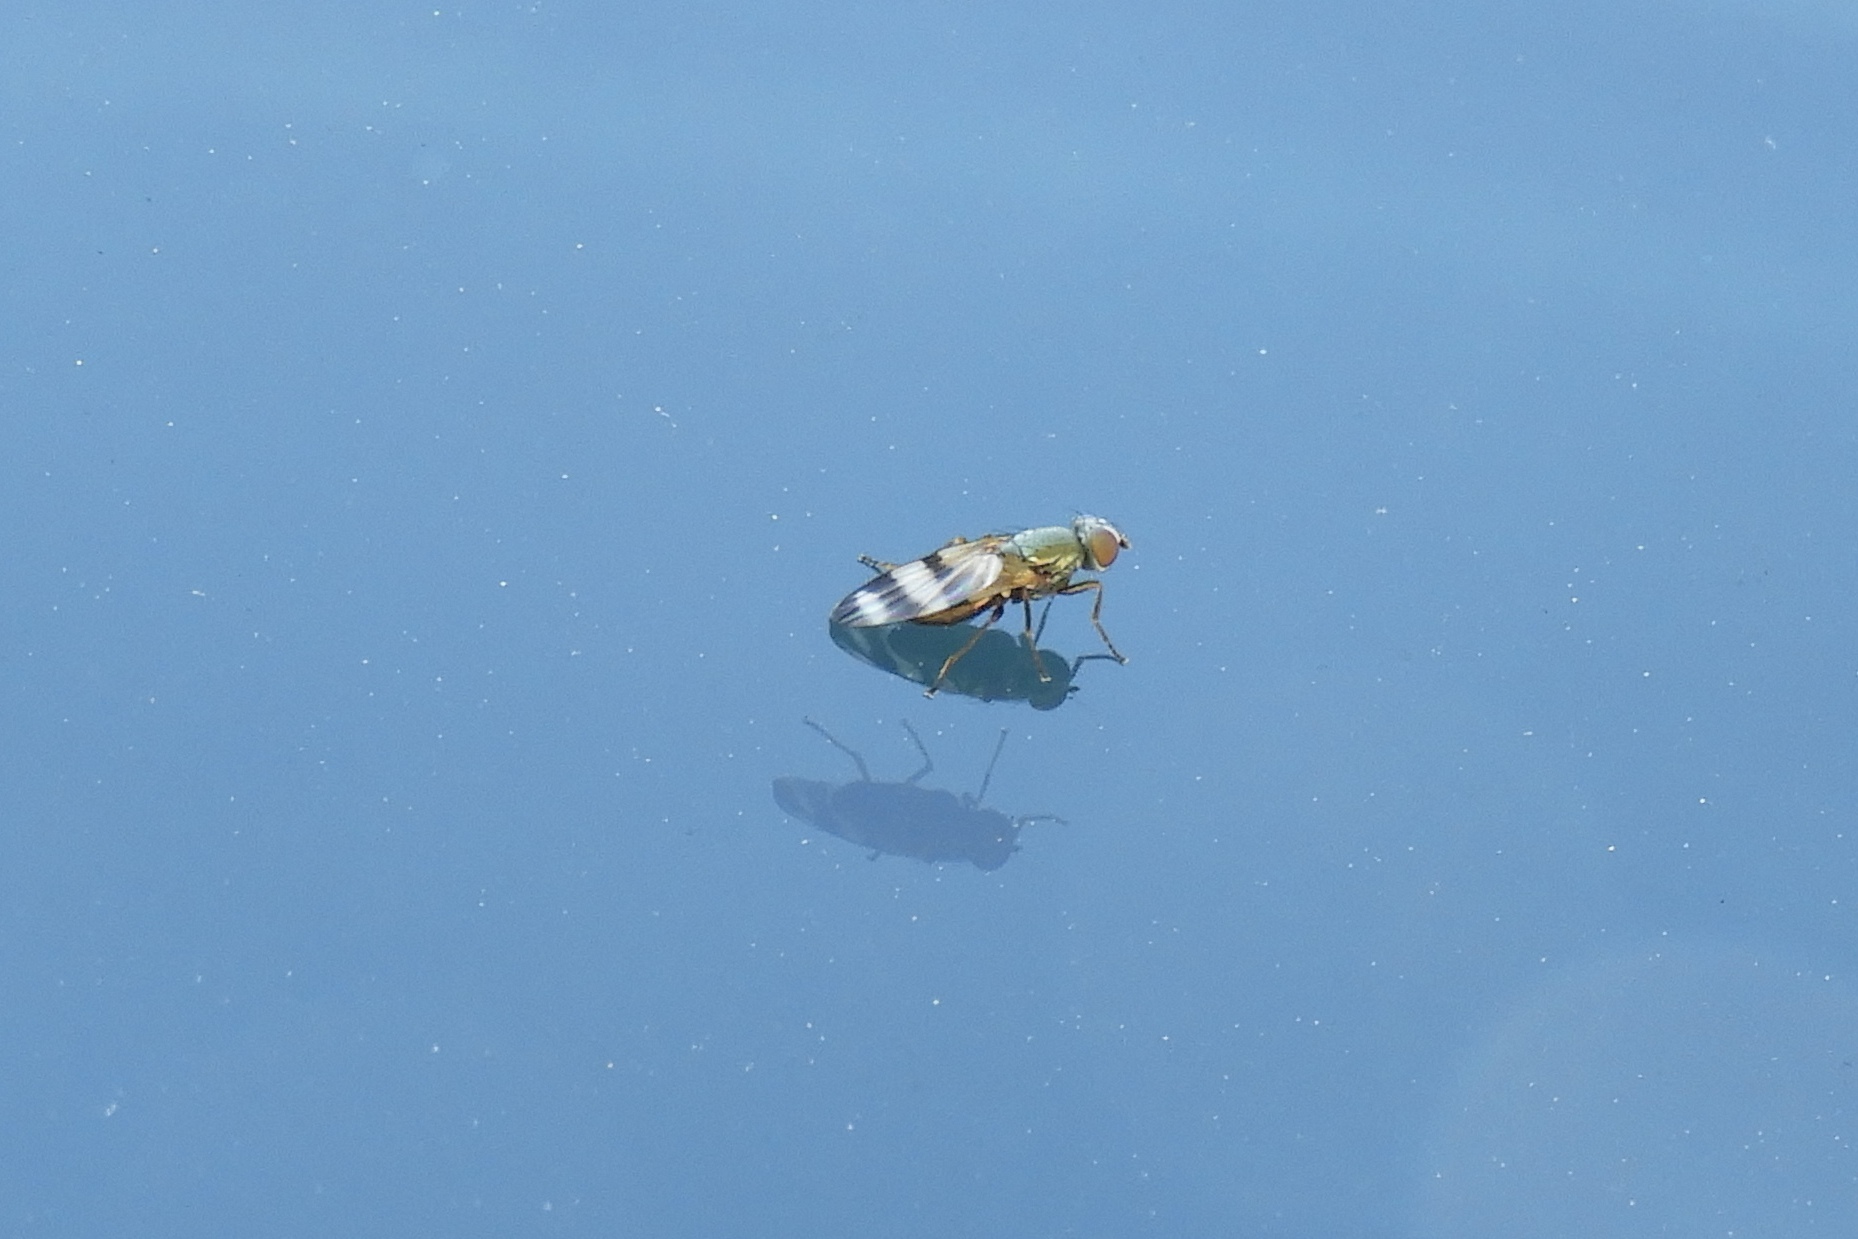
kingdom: Animalia
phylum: Arthropoda
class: Insecta
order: Diptera
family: Ulidiidae
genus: Chaetopsis
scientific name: Chaetopsis
